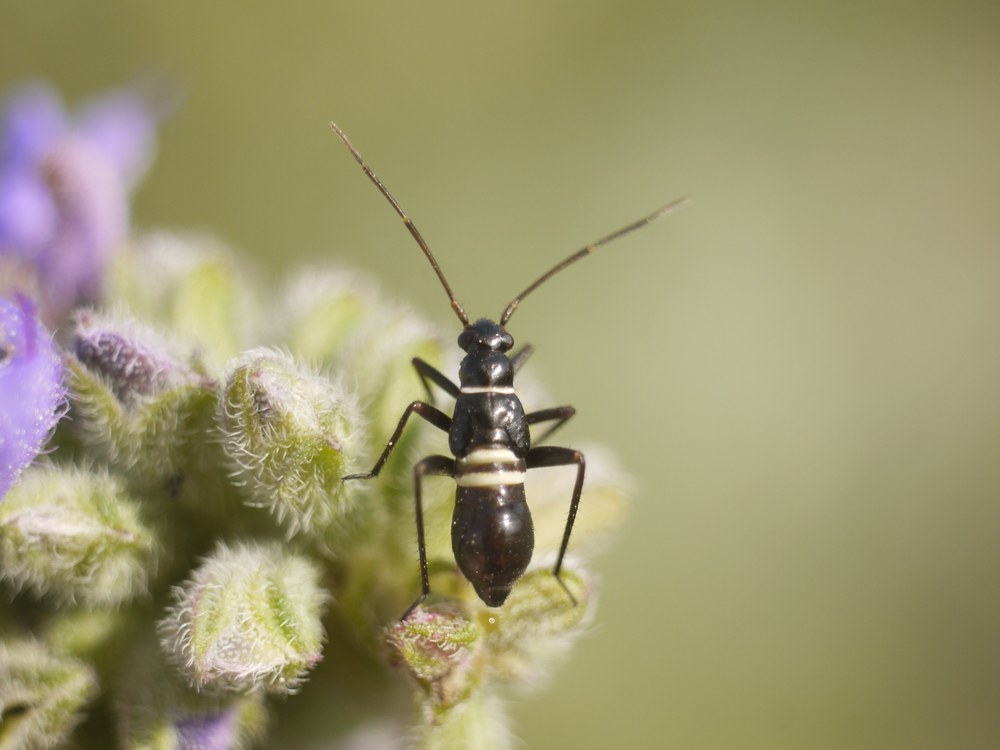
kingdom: Animalia
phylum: Arthropoda
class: Insecta
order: Hemiptera
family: Miridae
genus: Miris
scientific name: Miris striatus
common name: Fine streaked bugkin
